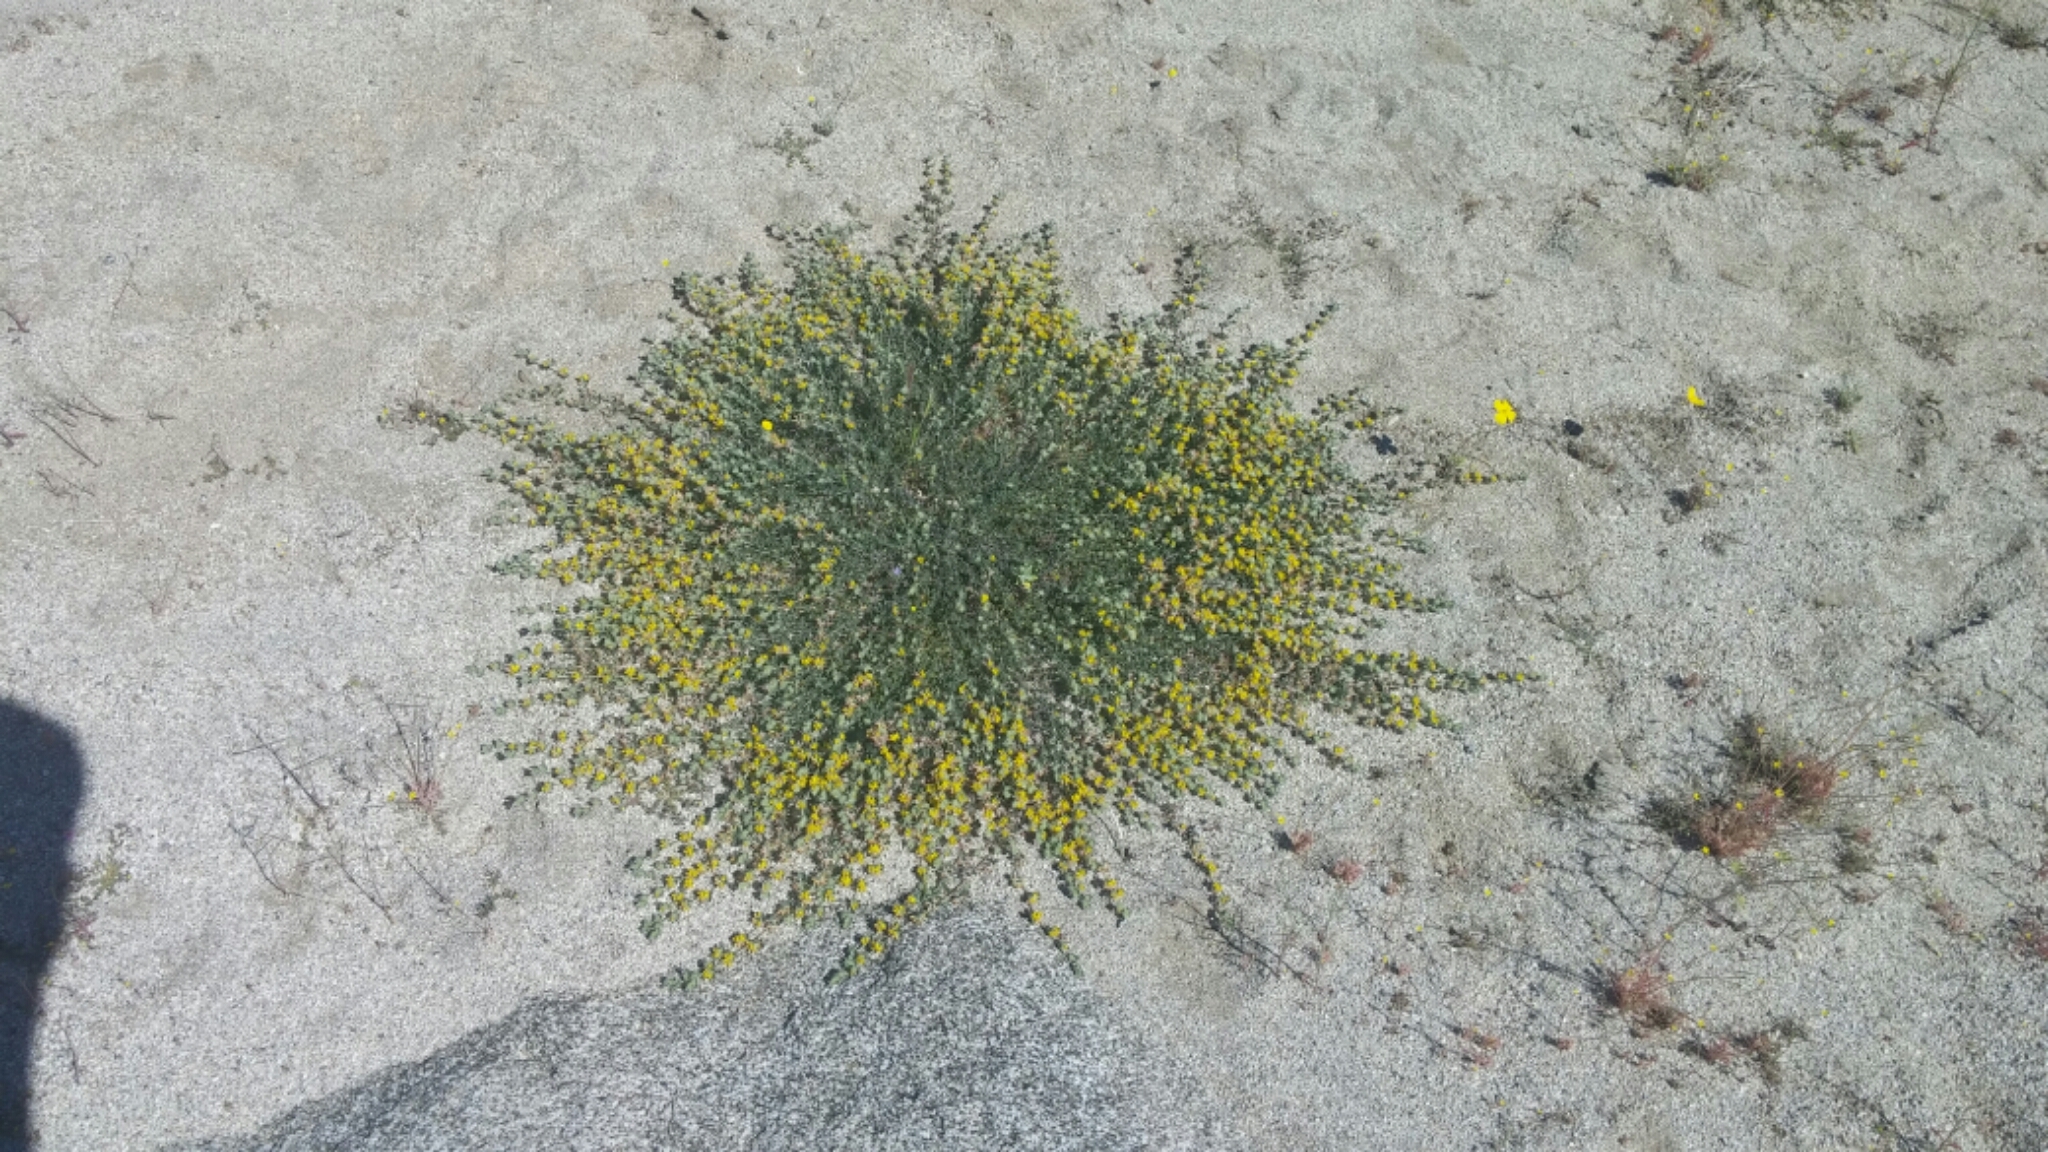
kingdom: Plantae
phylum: Tracheophyta
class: Magnoliopsida
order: Fabales
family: Fabaceae
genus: Acmispon
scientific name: Acmispon argophyllus
